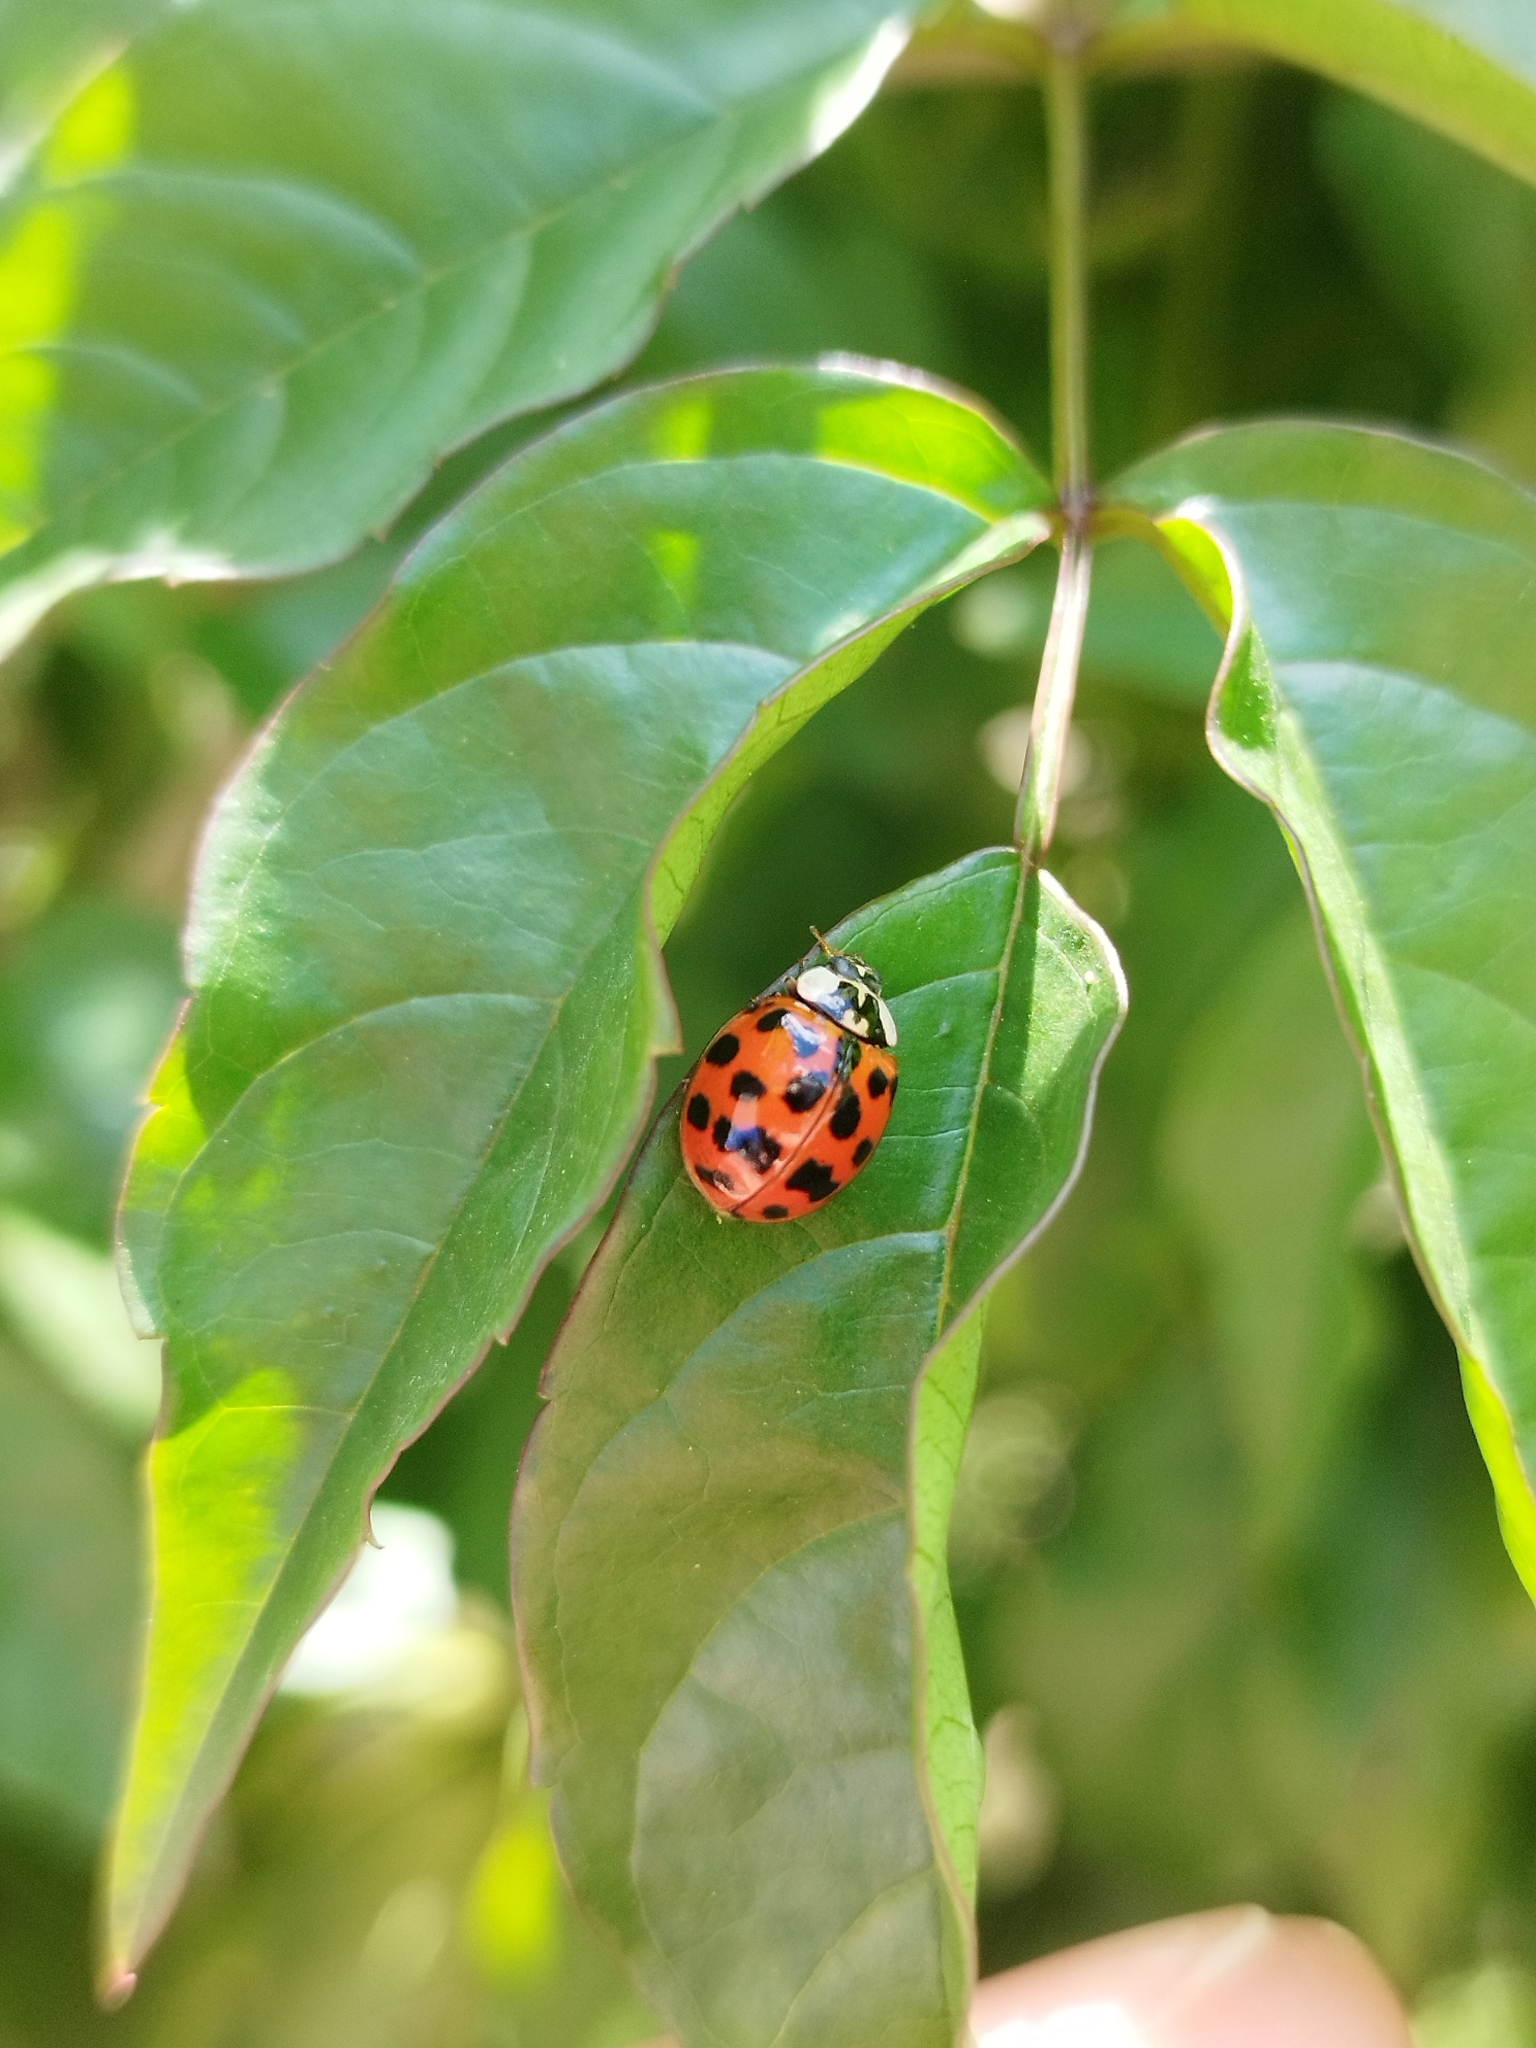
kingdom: Animalia
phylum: Arthropoda
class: Insecta
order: Coleoptera
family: Coccinellidae
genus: Harmonia
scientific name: Harmonia axyridis
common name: Harlequin ladybird
